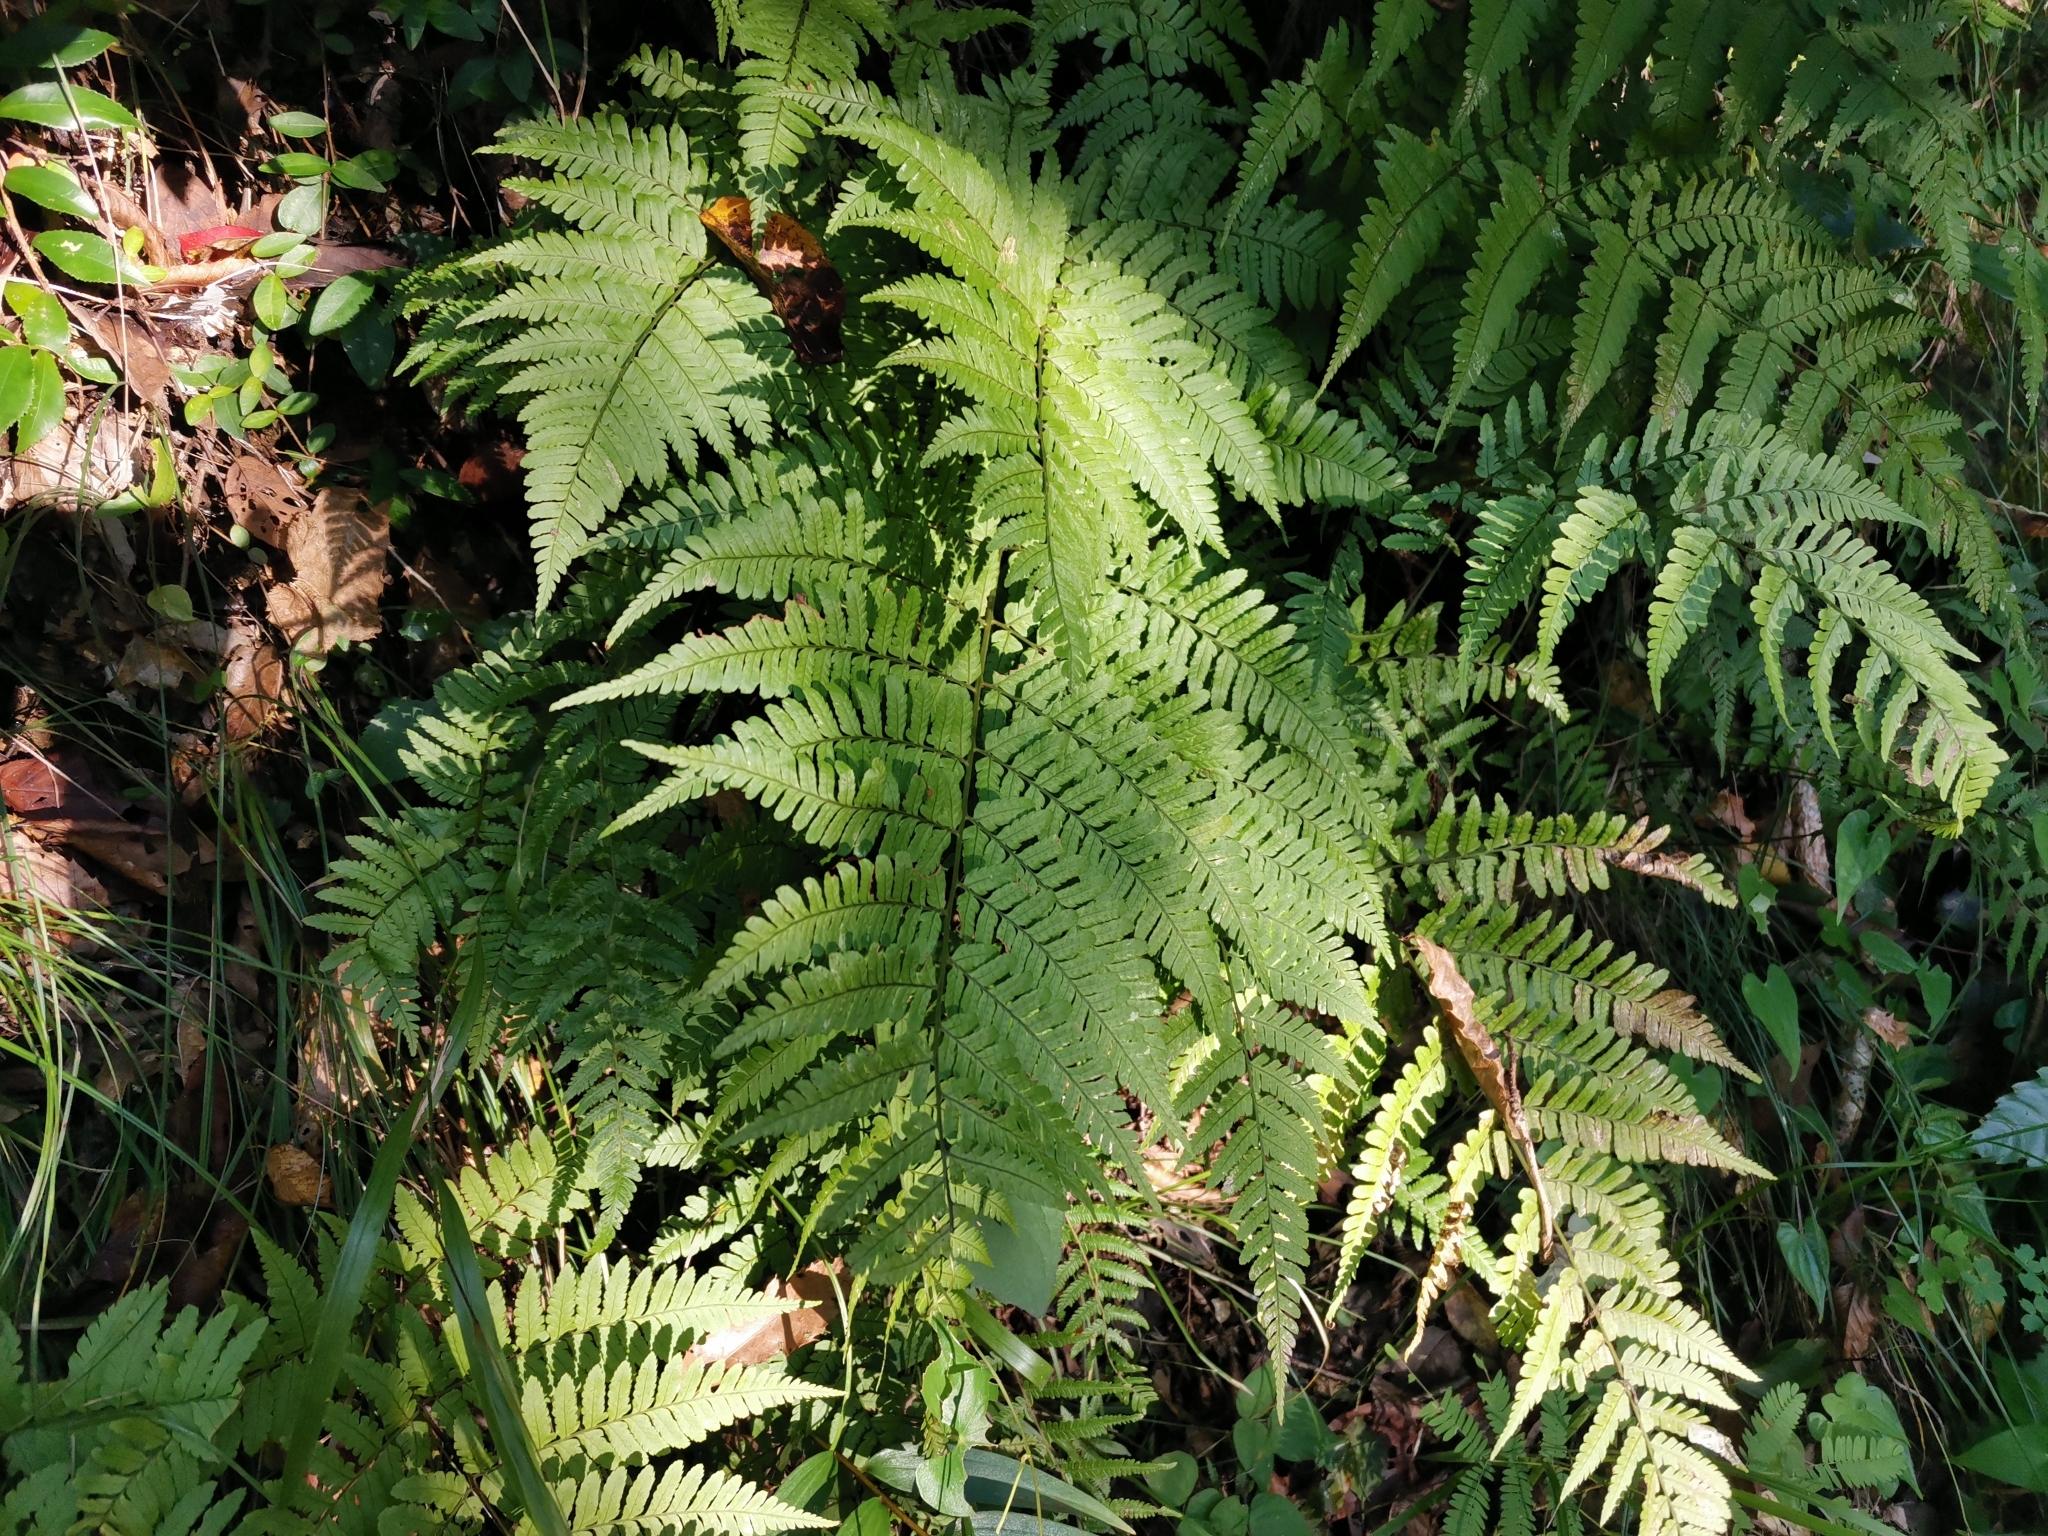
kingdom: Plantae
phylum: Tracheophyta
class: Polypodiopsida
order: Polypodiales
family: Dryopteridaceae
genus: Dryopteris
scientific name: Dryopteris hondoensis
